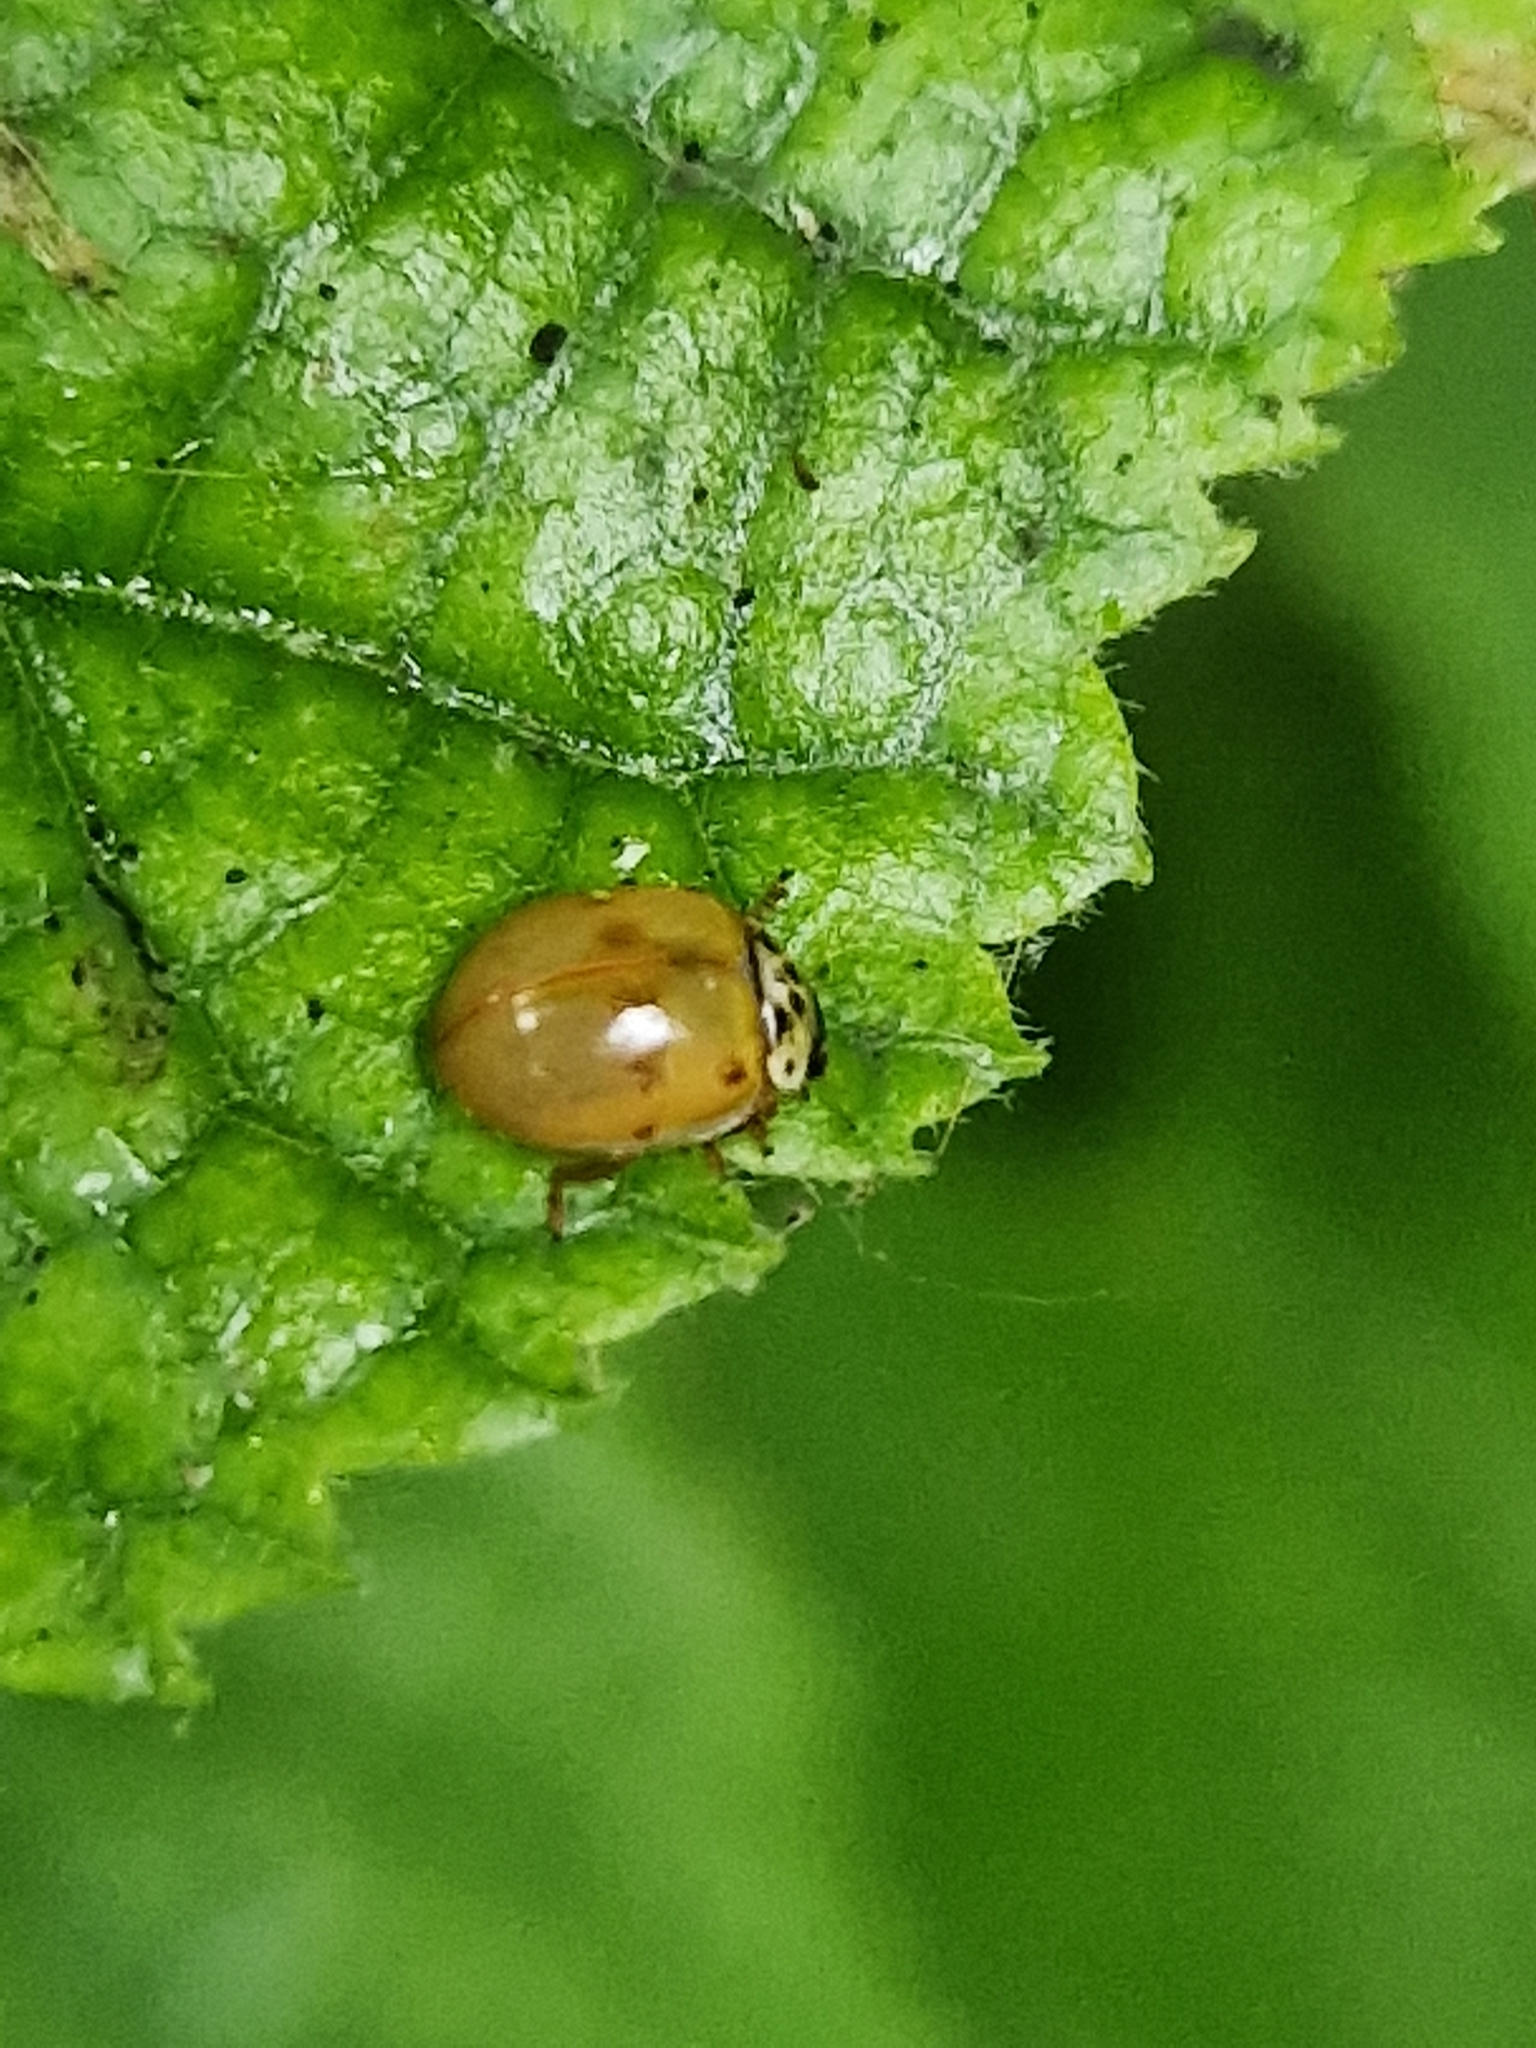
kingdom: Animalia
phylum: Arthropoda
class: Insecta
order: Coleoptera
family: Coccinellidae
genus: Adalia
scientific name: Adalia decempunctata
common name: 10-spot ladybird
